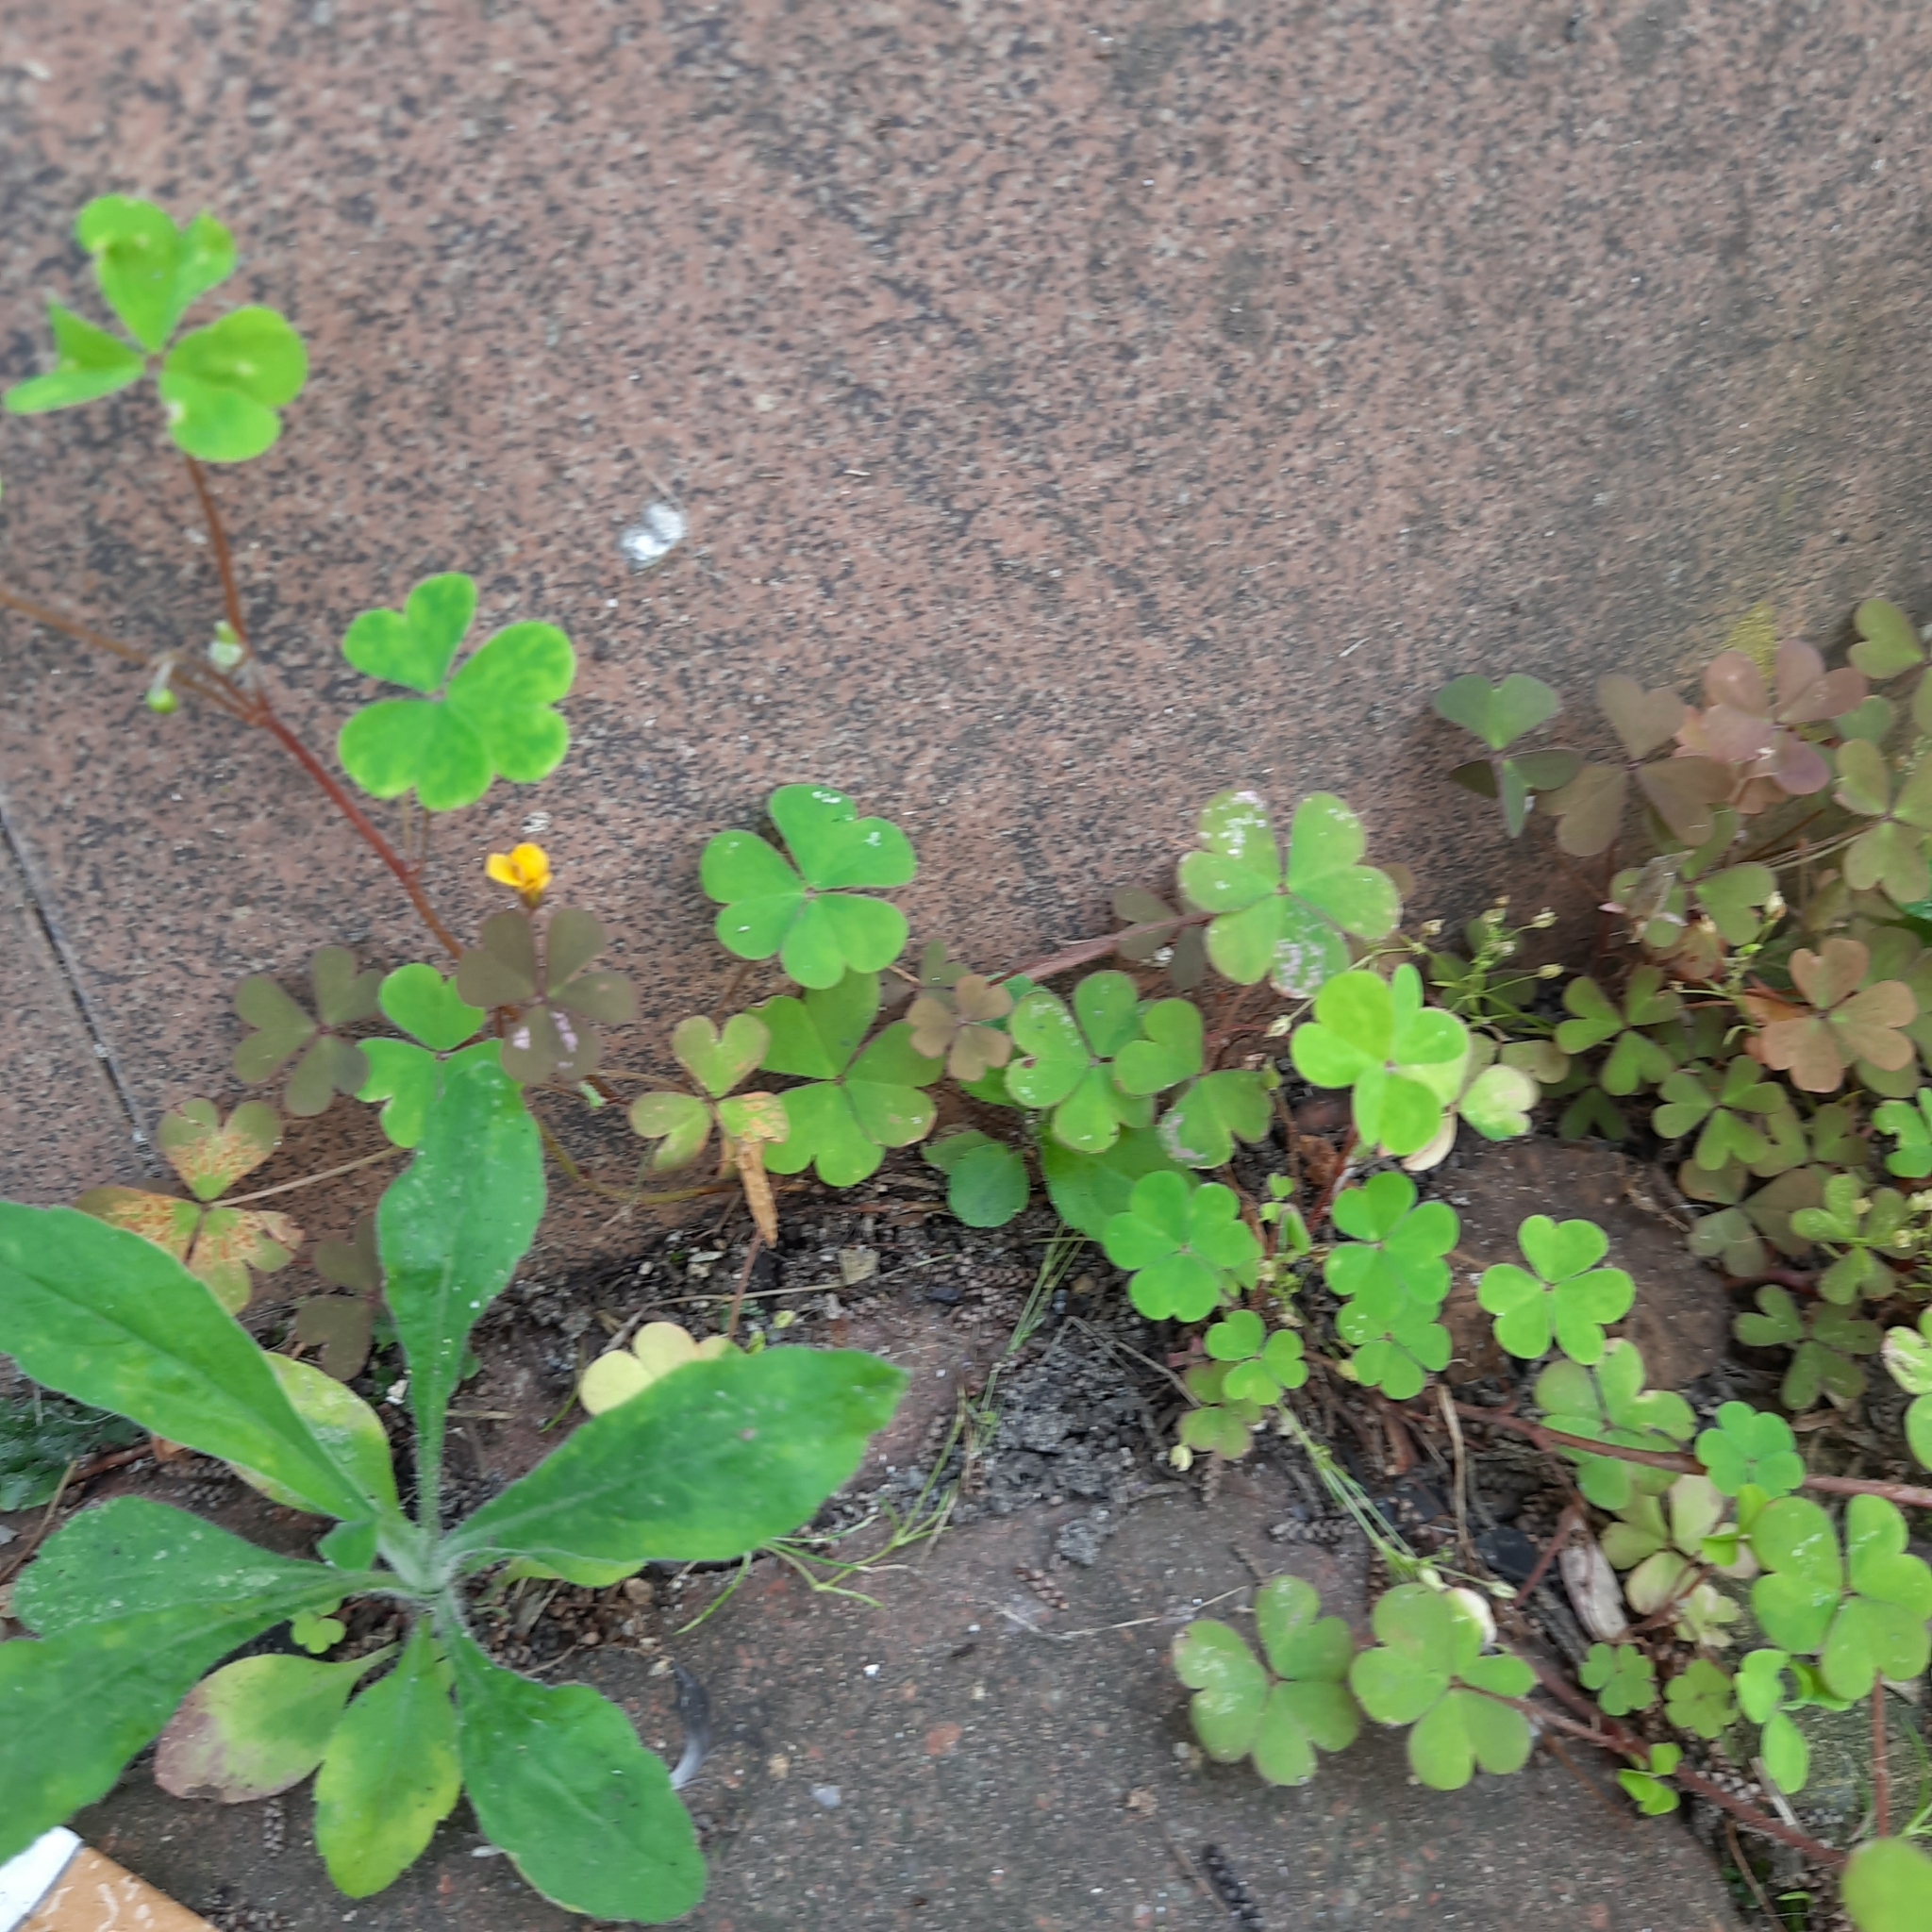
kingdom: Plantae
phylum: Tracheophyta
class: Magnoliopsida
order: Oxalidales
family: Oxalidaceae
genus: Oxalis
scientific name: Oxalis corniculata
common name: Procumbent yellow-sorrel
